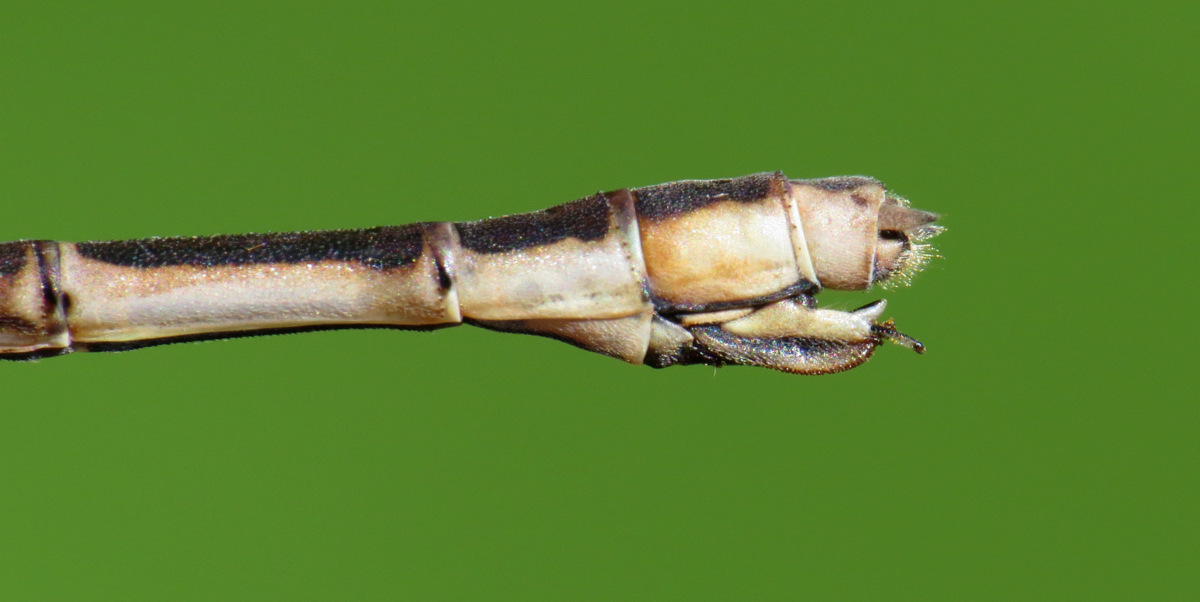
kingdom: Animalia
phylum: Arthropoda
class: Insecta
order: Odonata
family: Lestidae
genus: Lestes
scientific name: Lestes rectangularis
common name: Slender spreadwing
